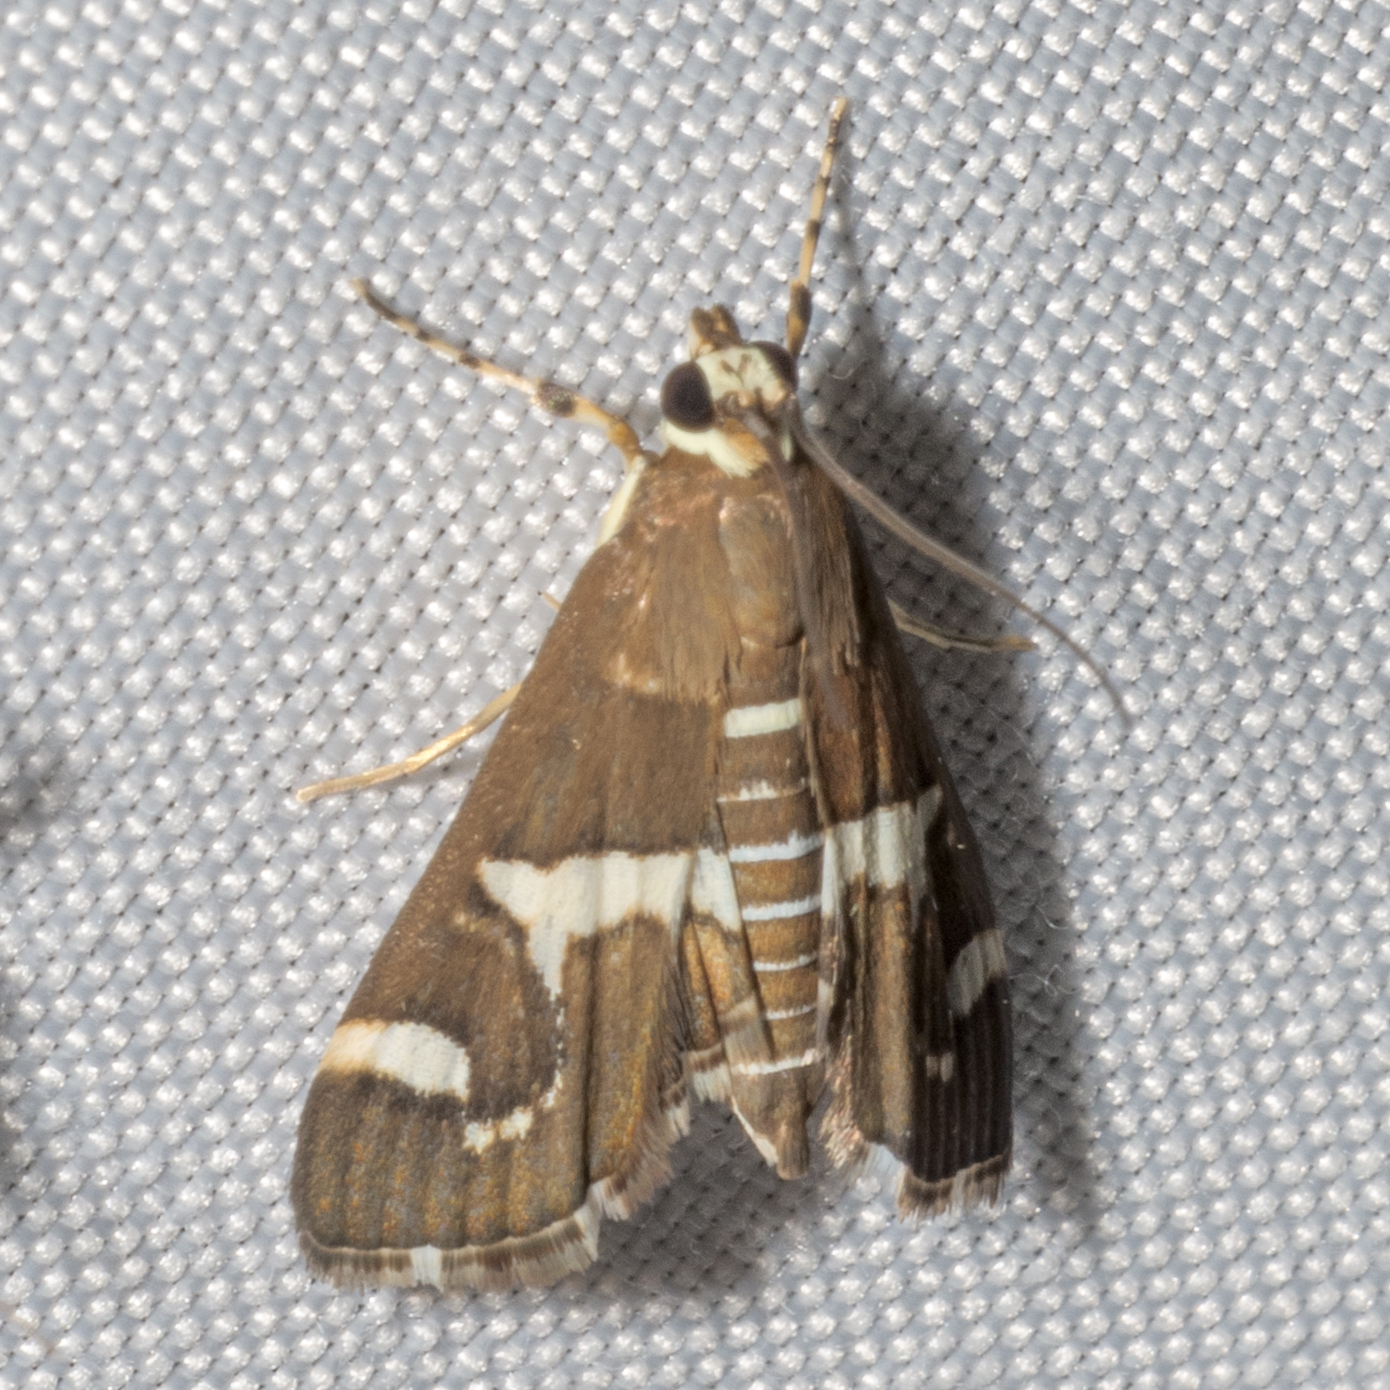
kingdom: Animalia
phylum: Arthropoda
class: Insecta
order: Lepidoptera
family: Crambidae
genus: Spoladea
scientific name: Spoladea recurvalis
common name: Beet webworm moth
